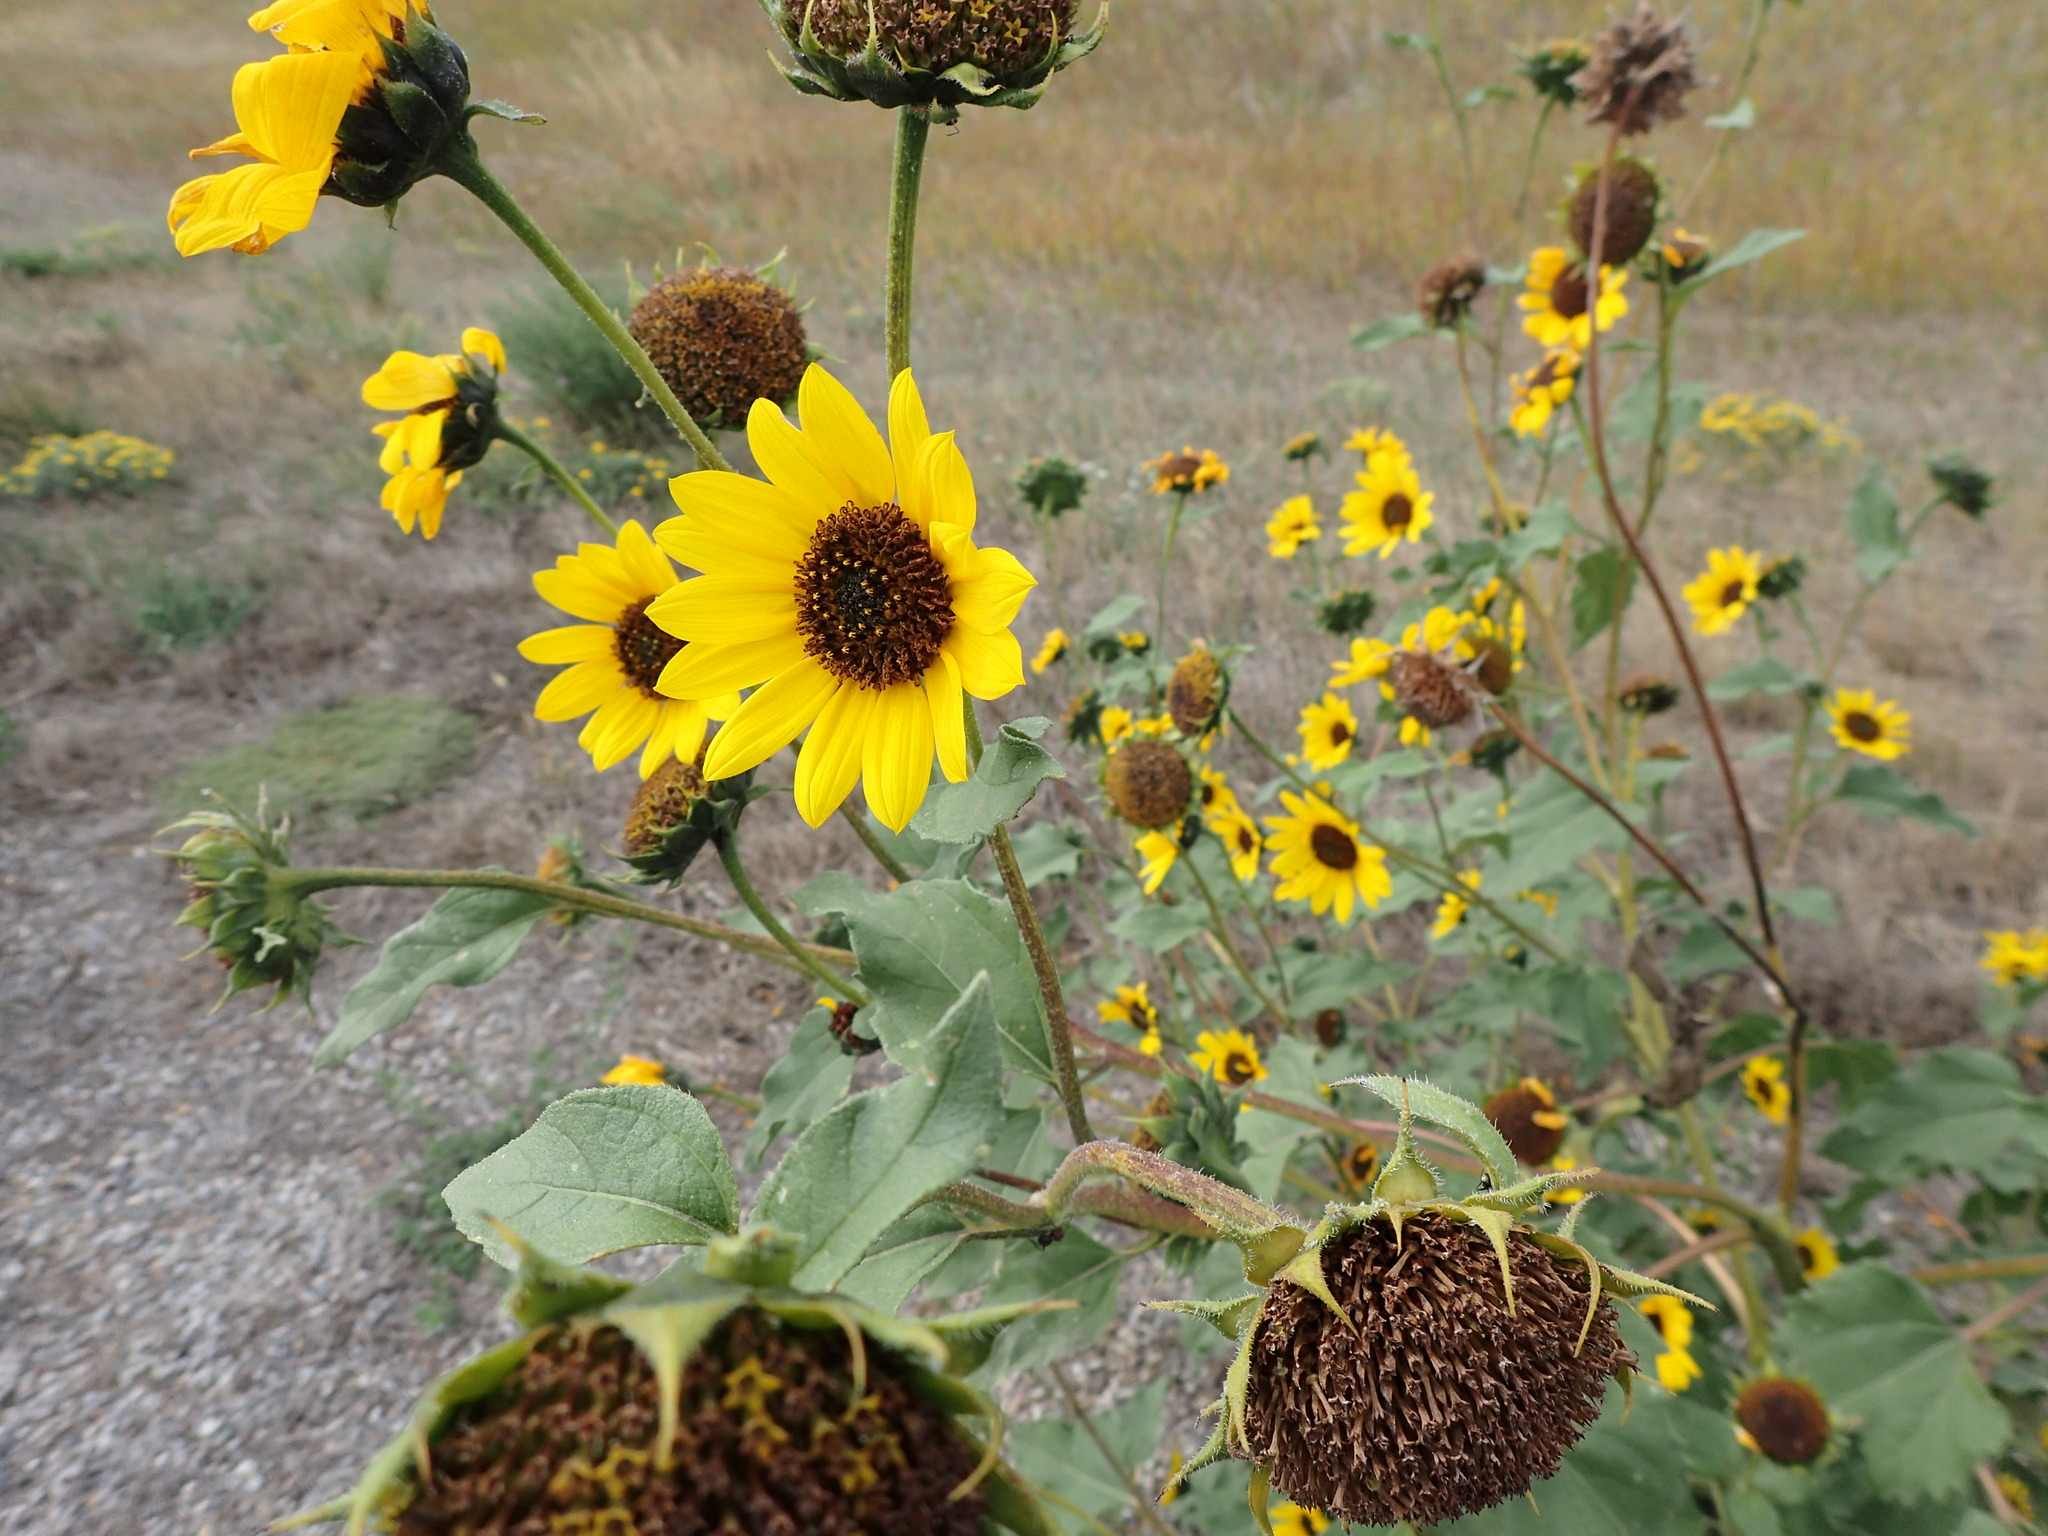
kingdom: Plantae
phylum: Tracheophyta
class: Magnoliopsida
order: Asterales
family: Asteraceae
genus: Helianthus
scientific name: Helianthus annuus
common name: Sunflower
